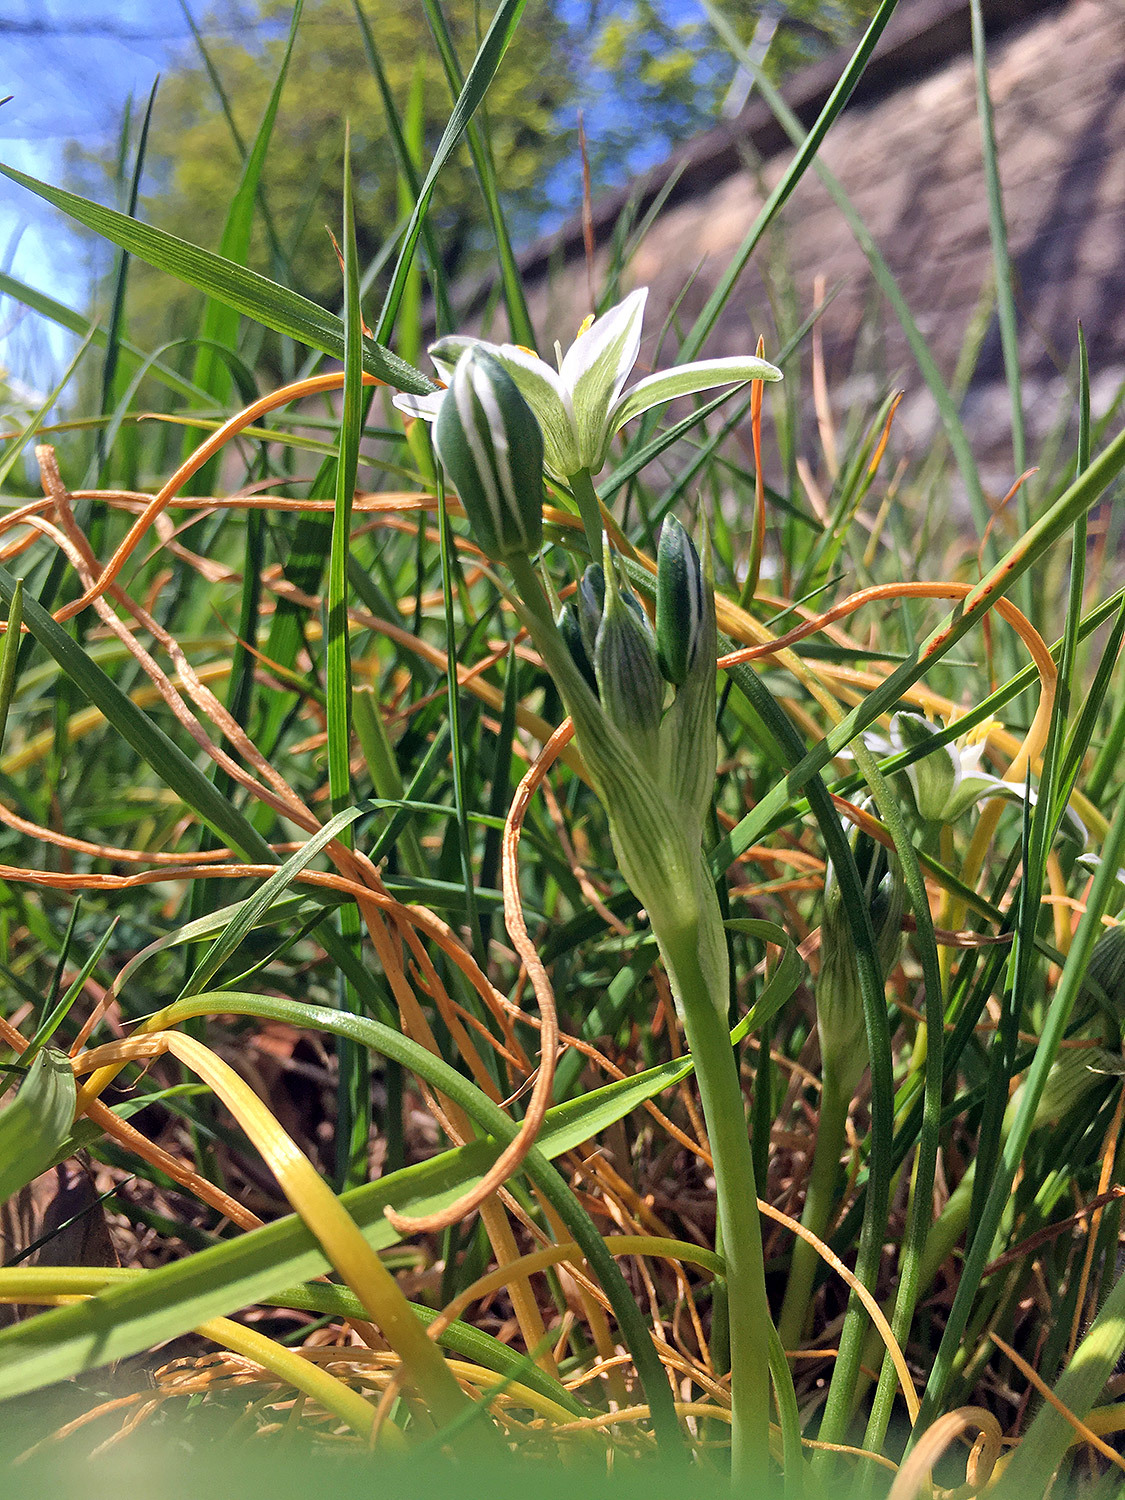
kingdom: Plantae
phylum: Tracheophyta
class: Liliopsida
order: Asparagales
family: Asparagaceae
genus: Ornithogalum
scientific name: Ornithogalum umbellatum
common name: Garden star-of-bethlehem
